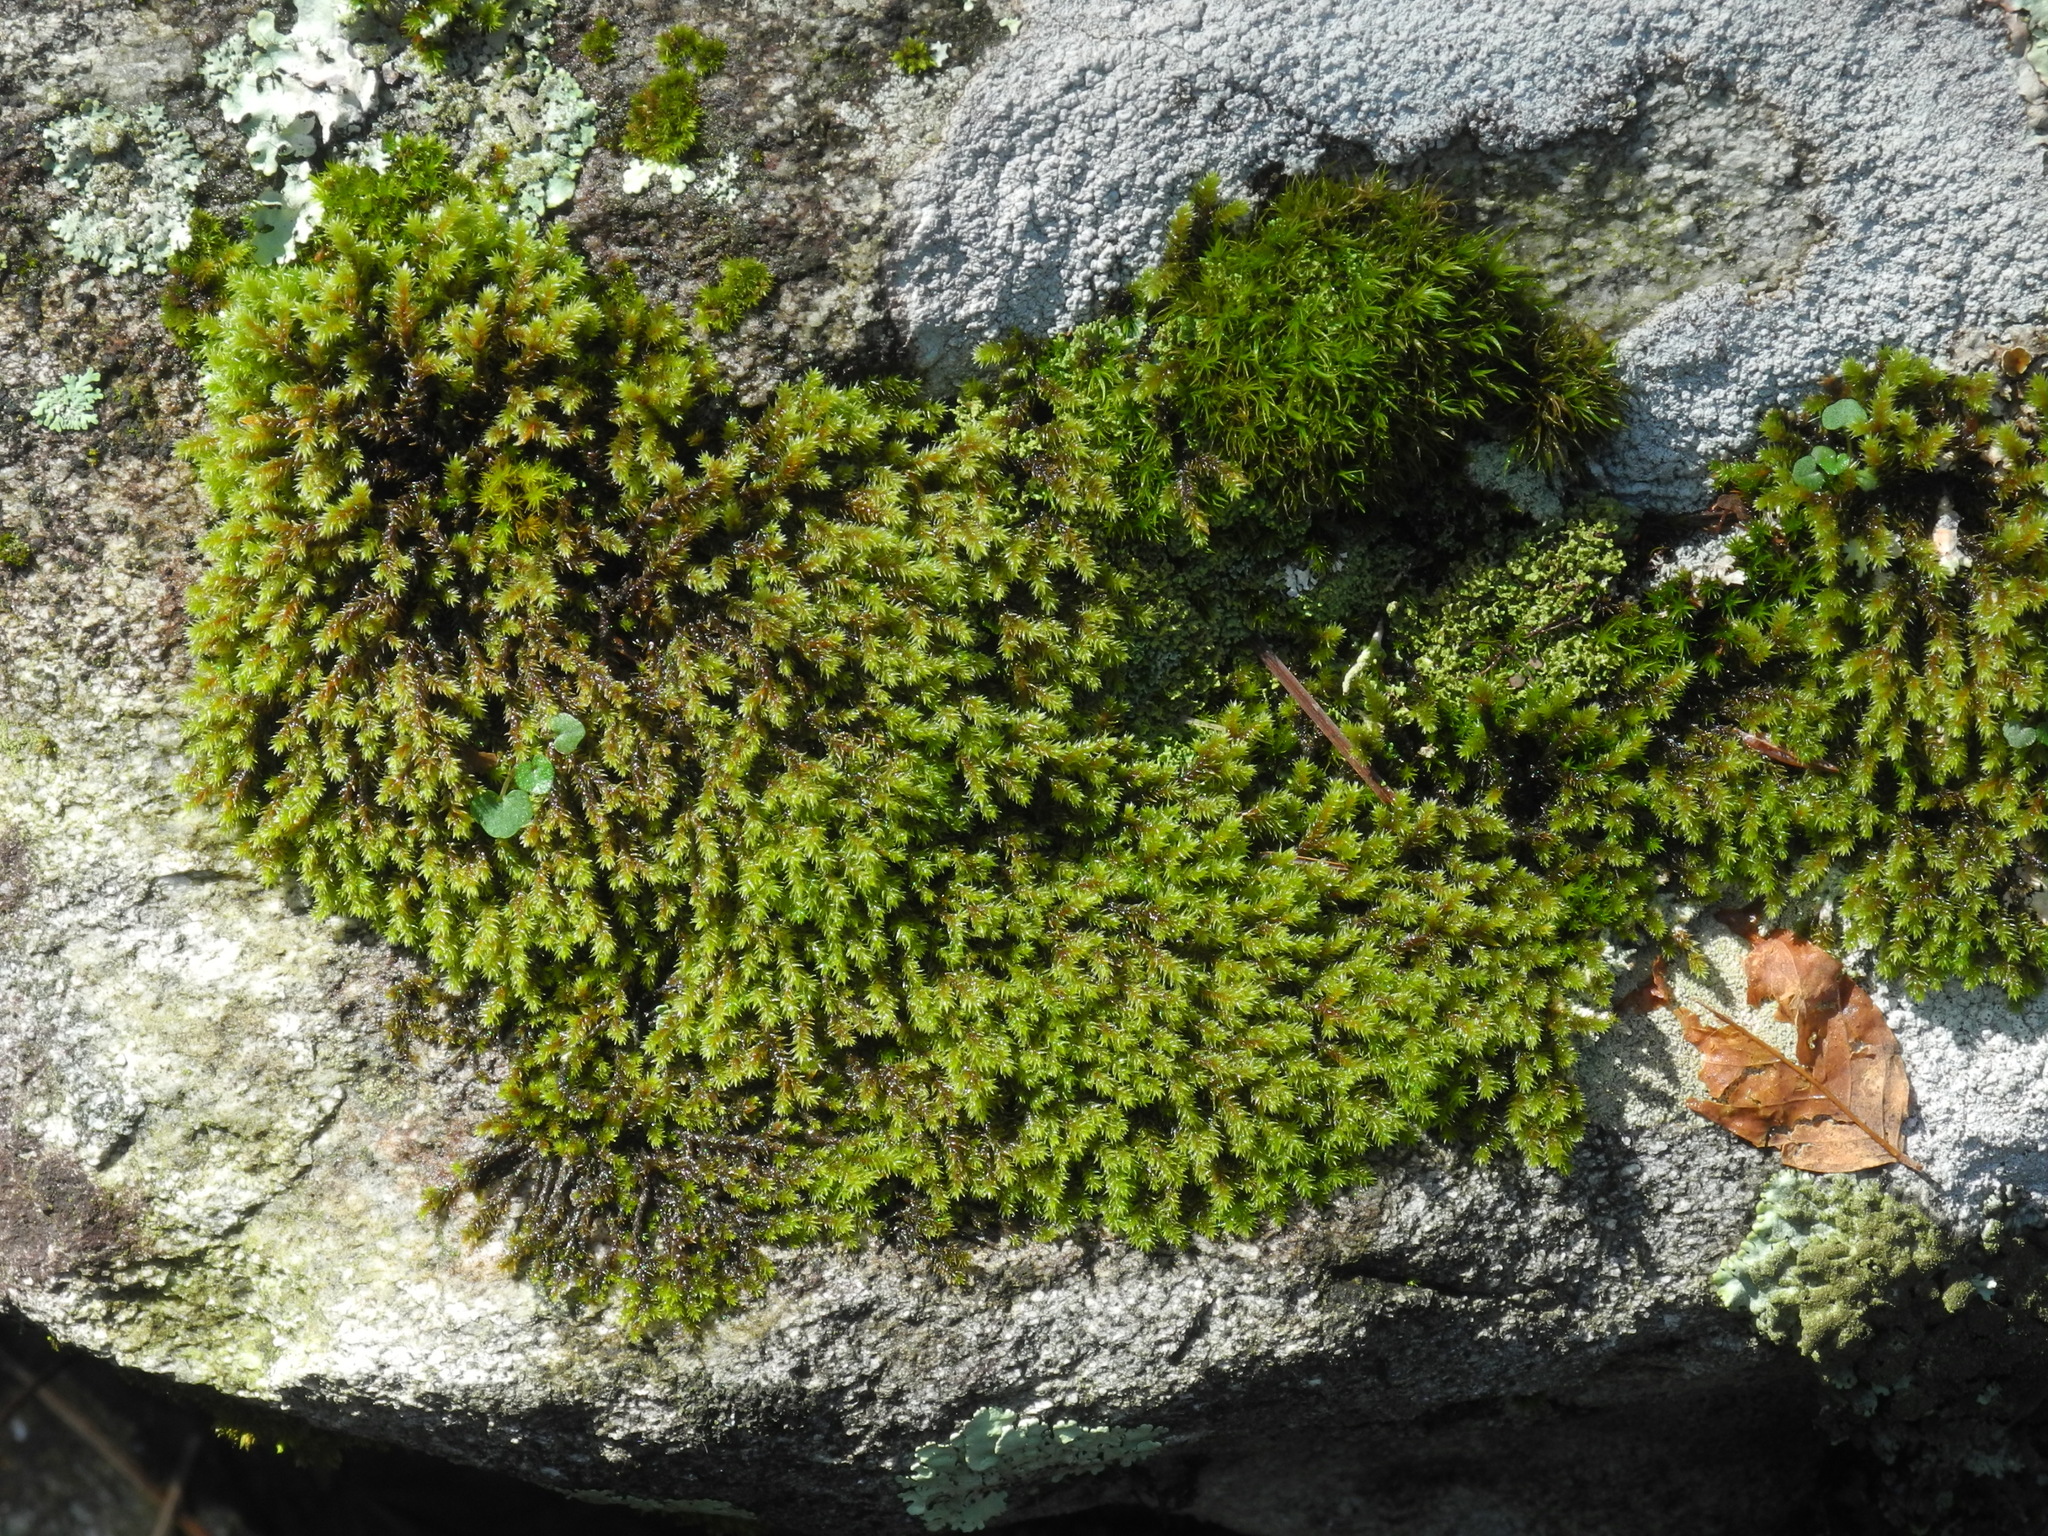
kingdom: Plantae
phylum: Bryophyta
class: Bryopsida
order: Hedwigiales
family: Hedwigiaceae
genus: Hedwigia
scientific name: Hedwigia ciliata
